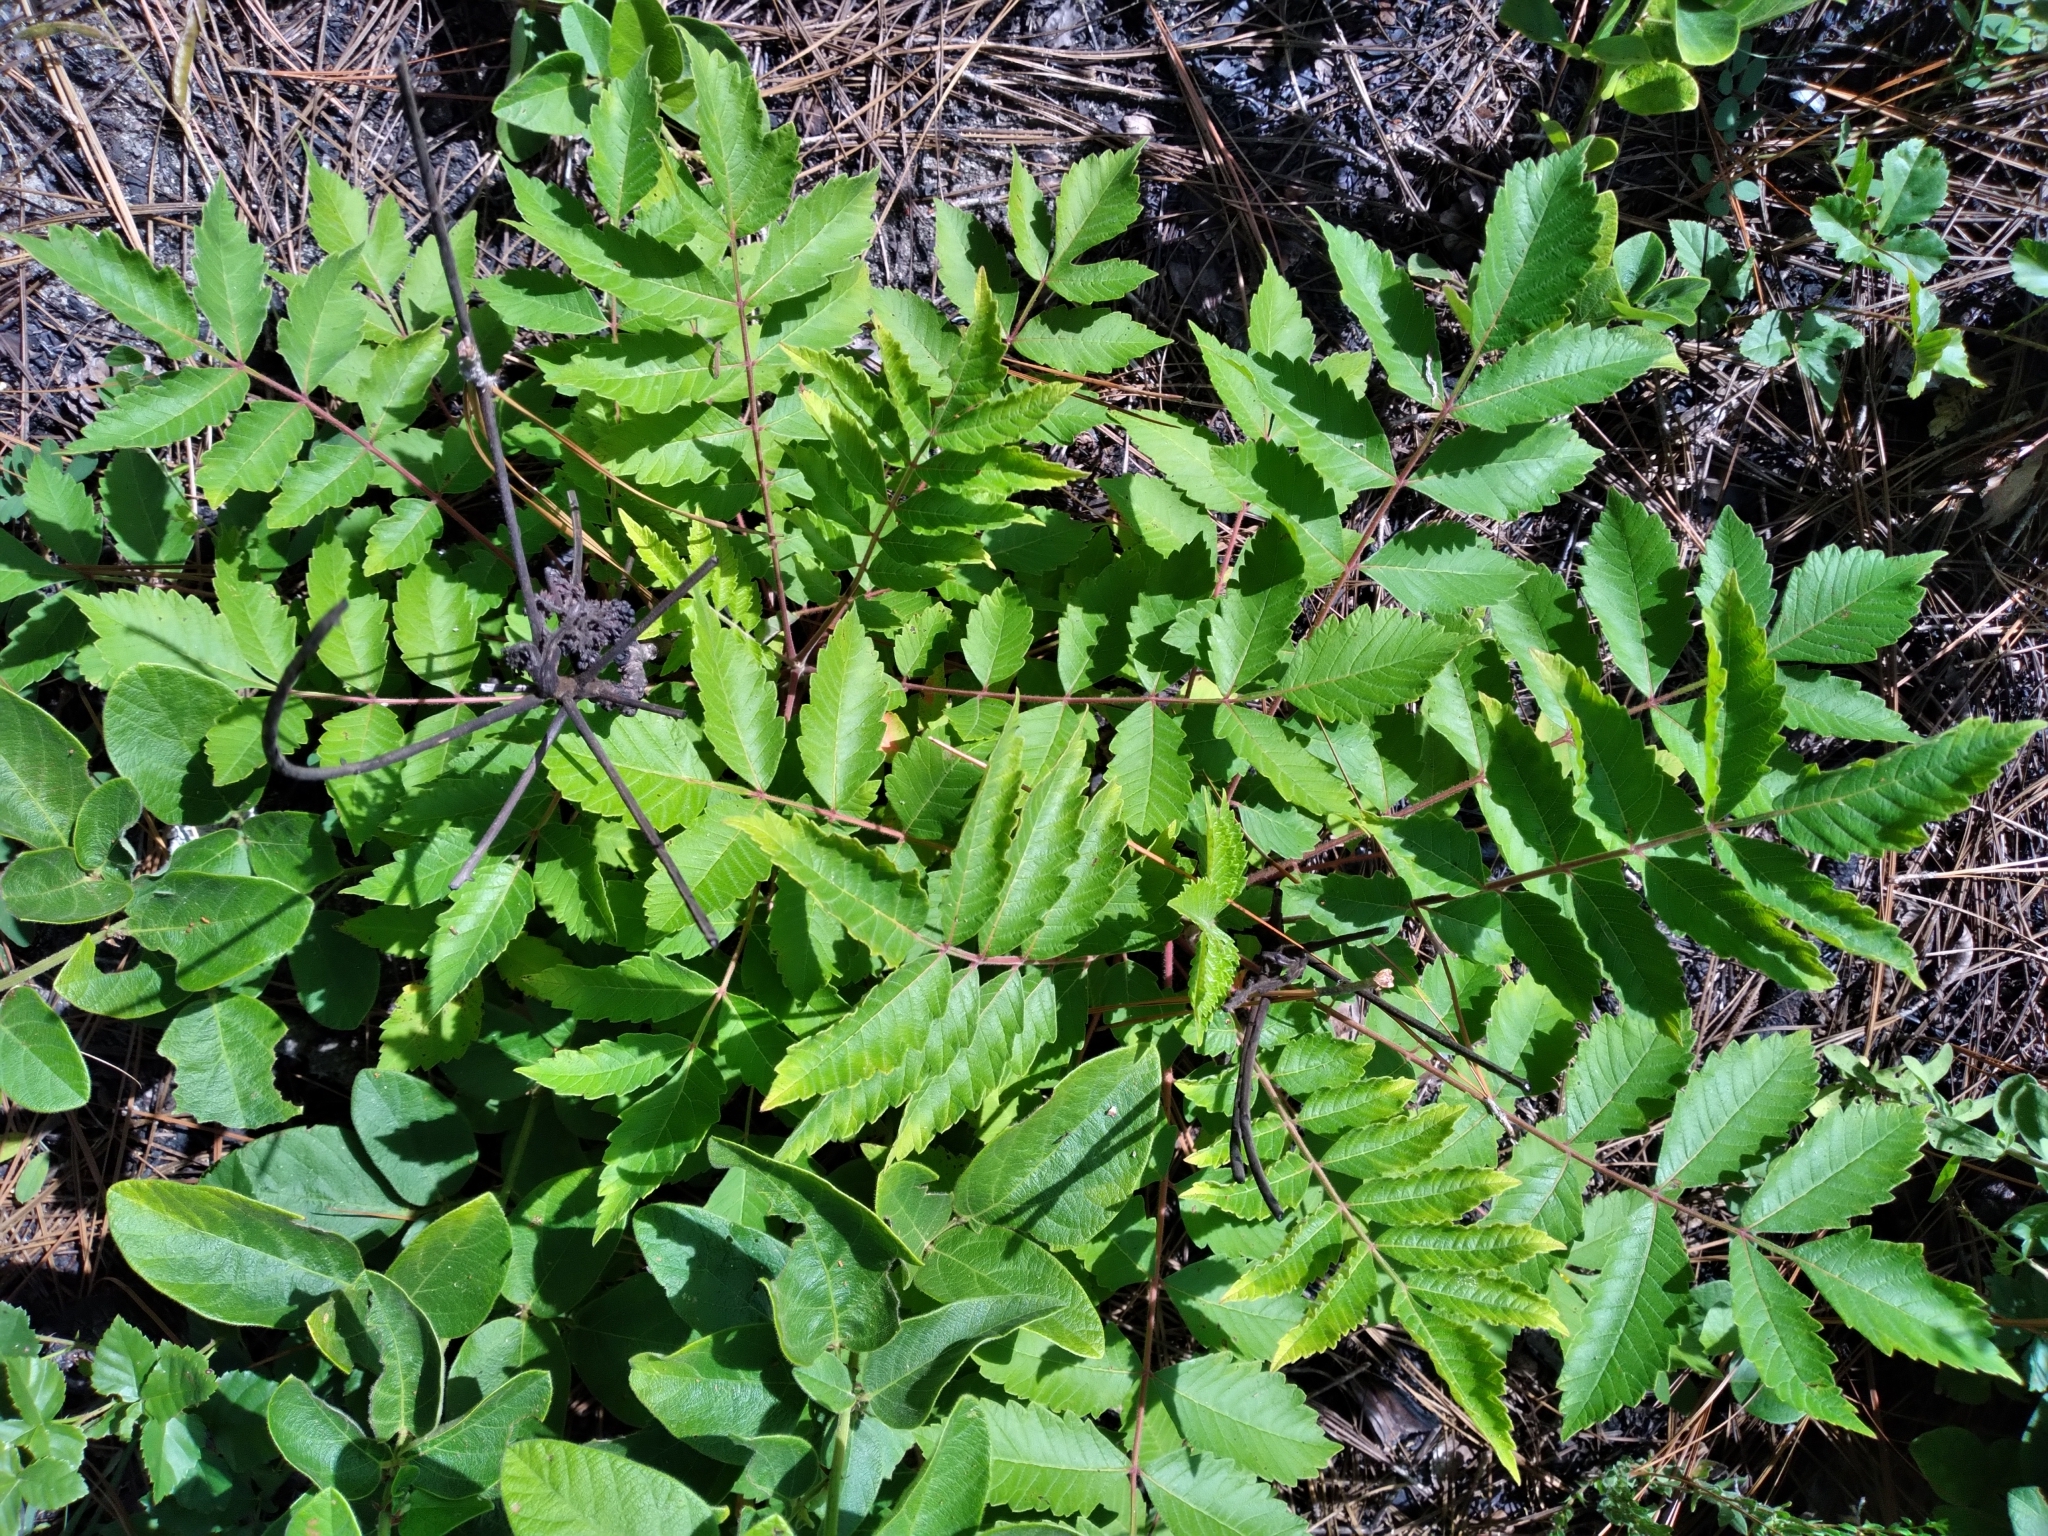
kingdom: Plantae
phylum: Tracheophyta
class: Magnoliopsida
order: Sapindales
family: Anacardiaceae
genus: Rhus
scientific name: Rhus michauxii
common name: Michaux's sumac
